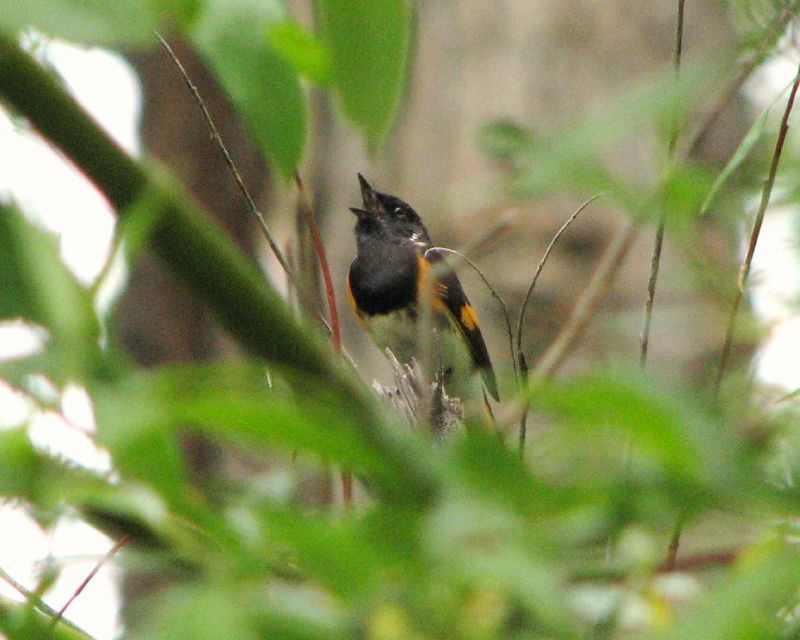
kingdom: Animalia
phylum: Chordata
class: Aves
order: Passeriformes
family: Parulidae
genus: Setophaga
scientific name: Setophaga ruticilla
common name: American redstart
